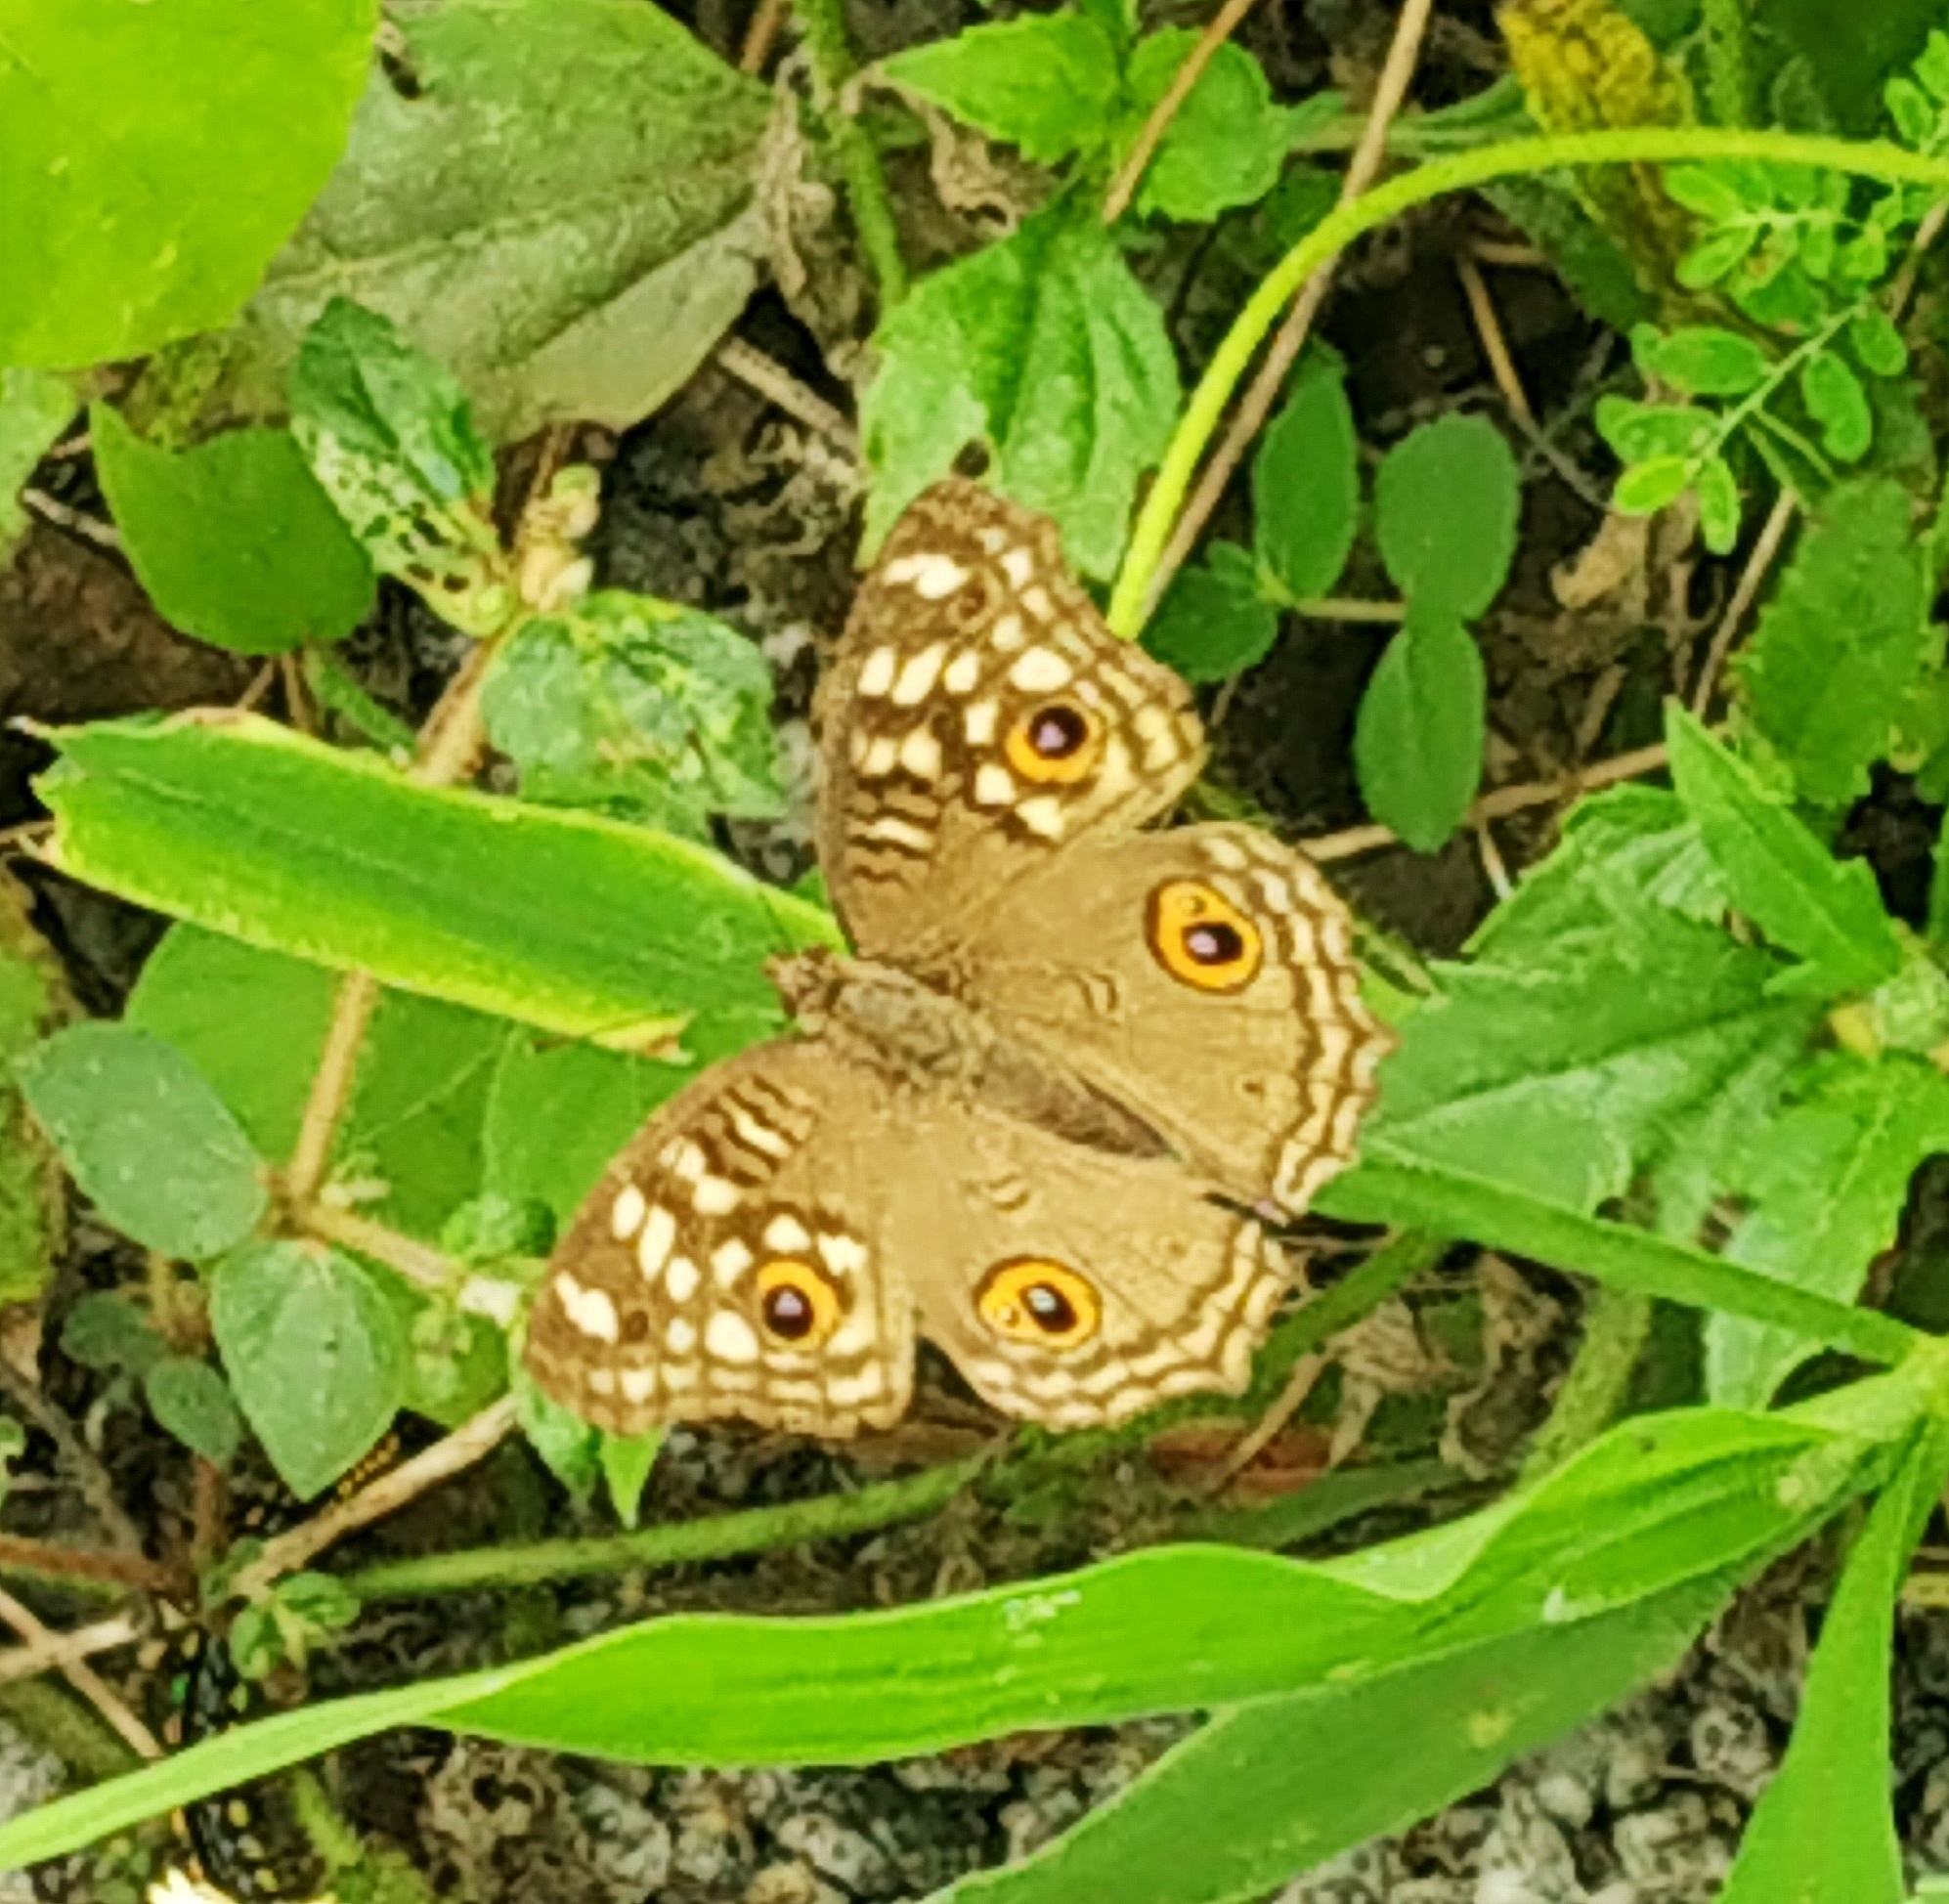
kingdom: Animalia
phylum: Arthropoda
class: Insecta
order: Lepidoptera
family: Nymphalidae
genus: Junonia
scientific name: Junonia lemonias
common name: Lemon pansy
